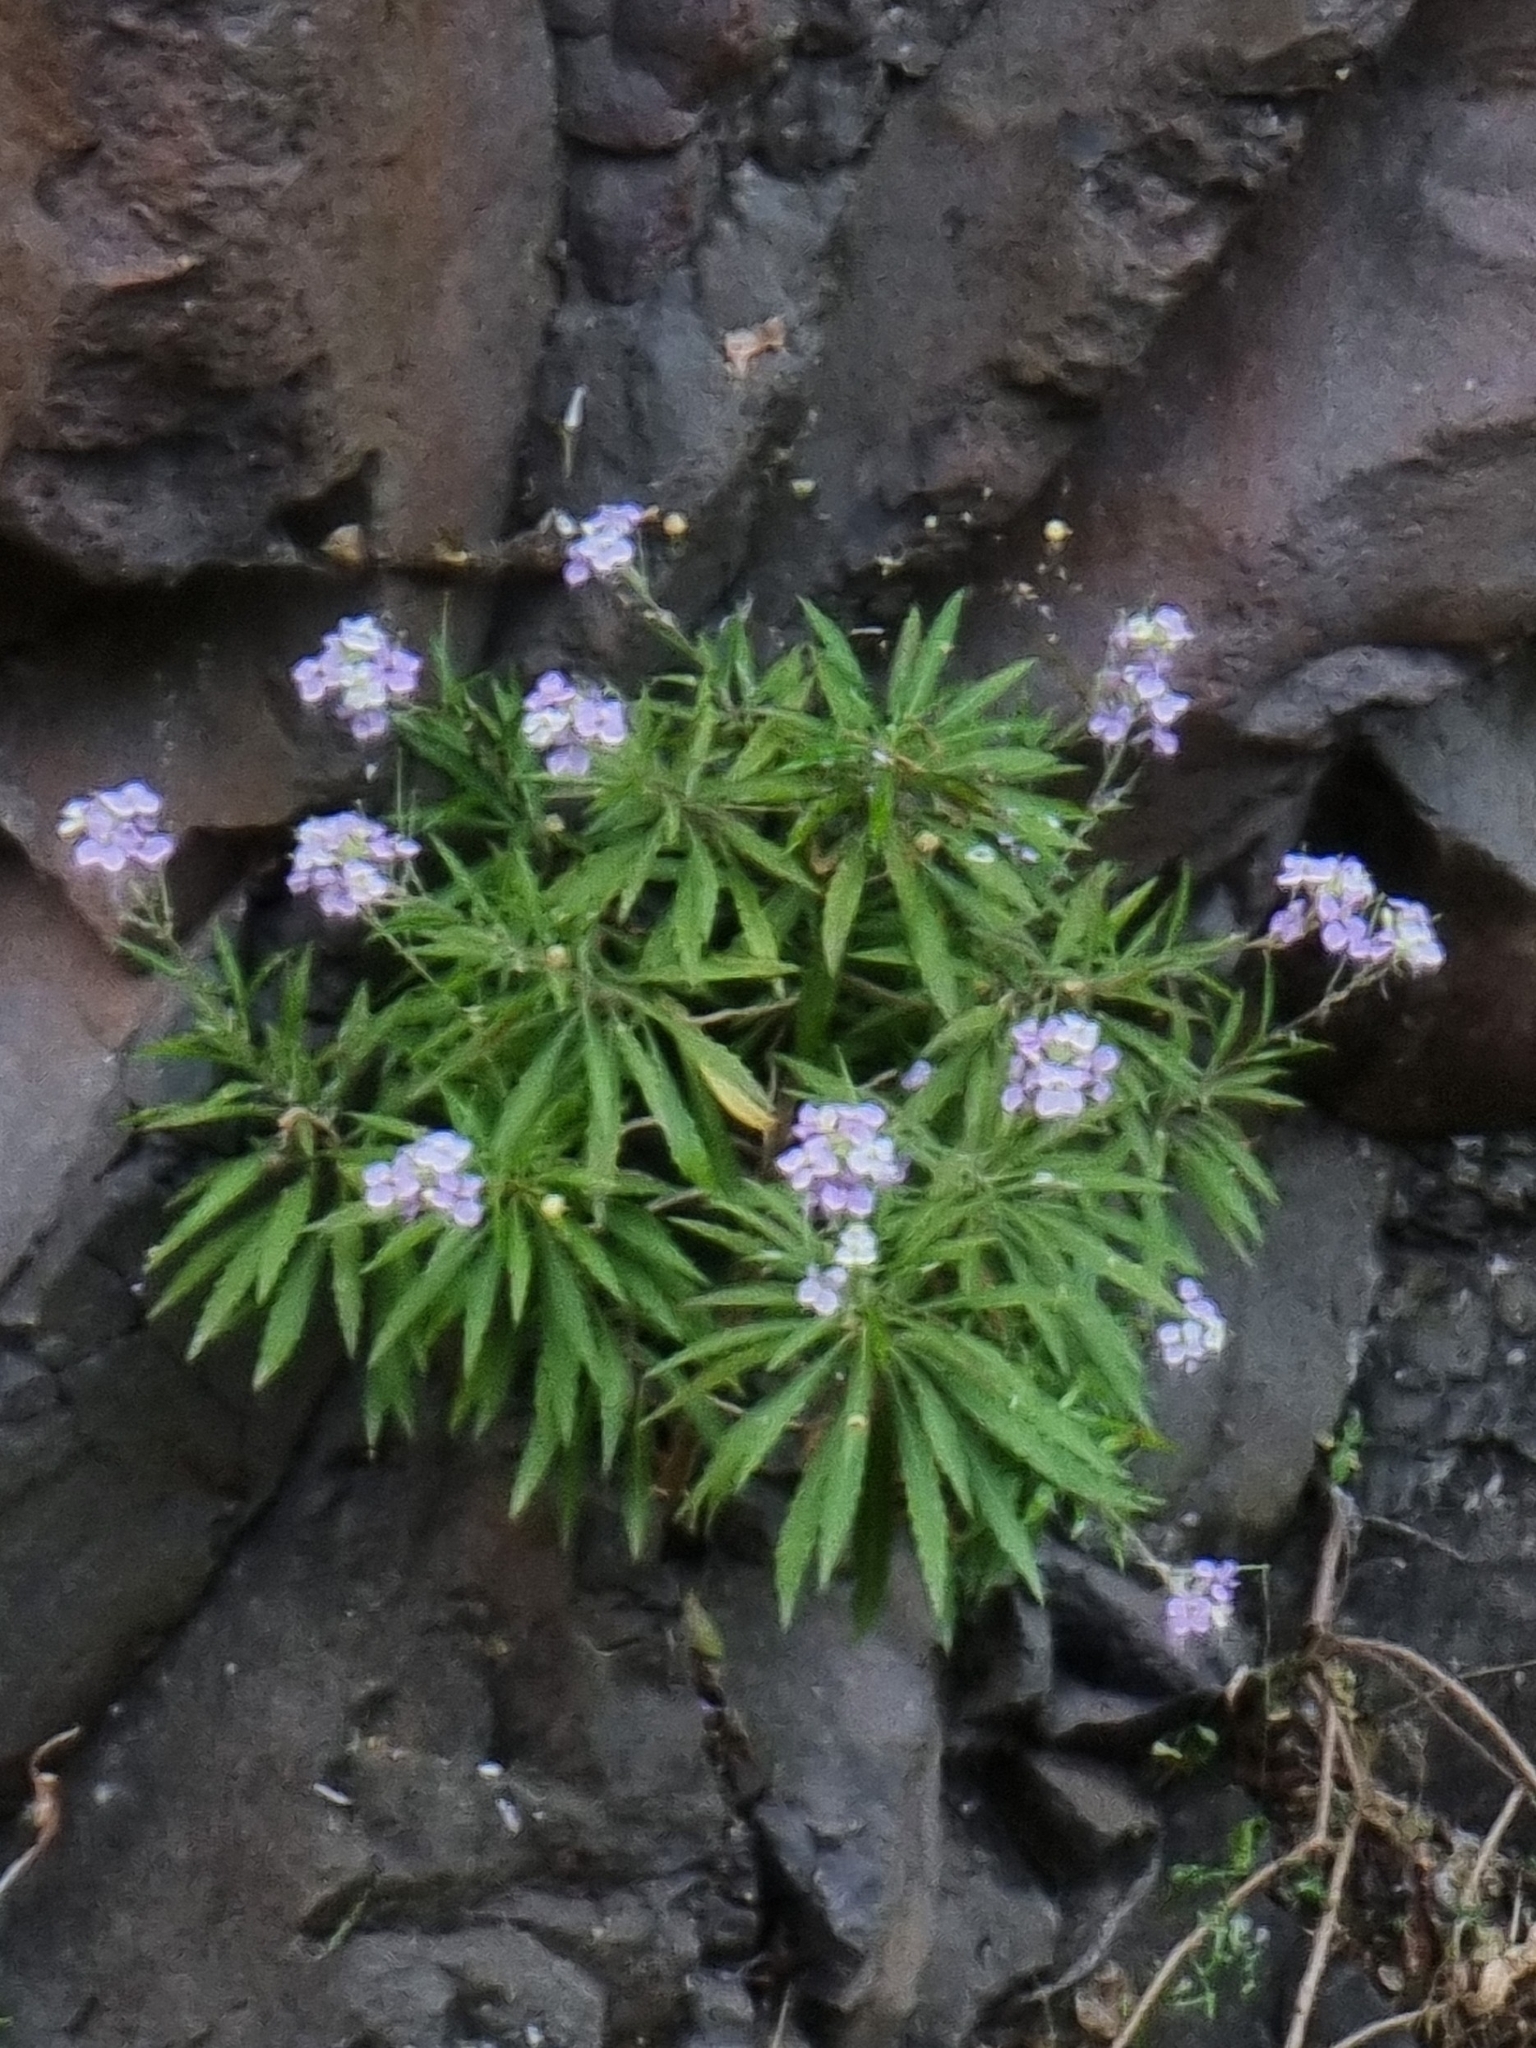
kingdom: Plantae
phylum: Tracheophyta
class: Magnoliopsida
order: Brassicales
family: Brassicaceae
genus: Erysimum
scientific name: Erysimum bicolor
